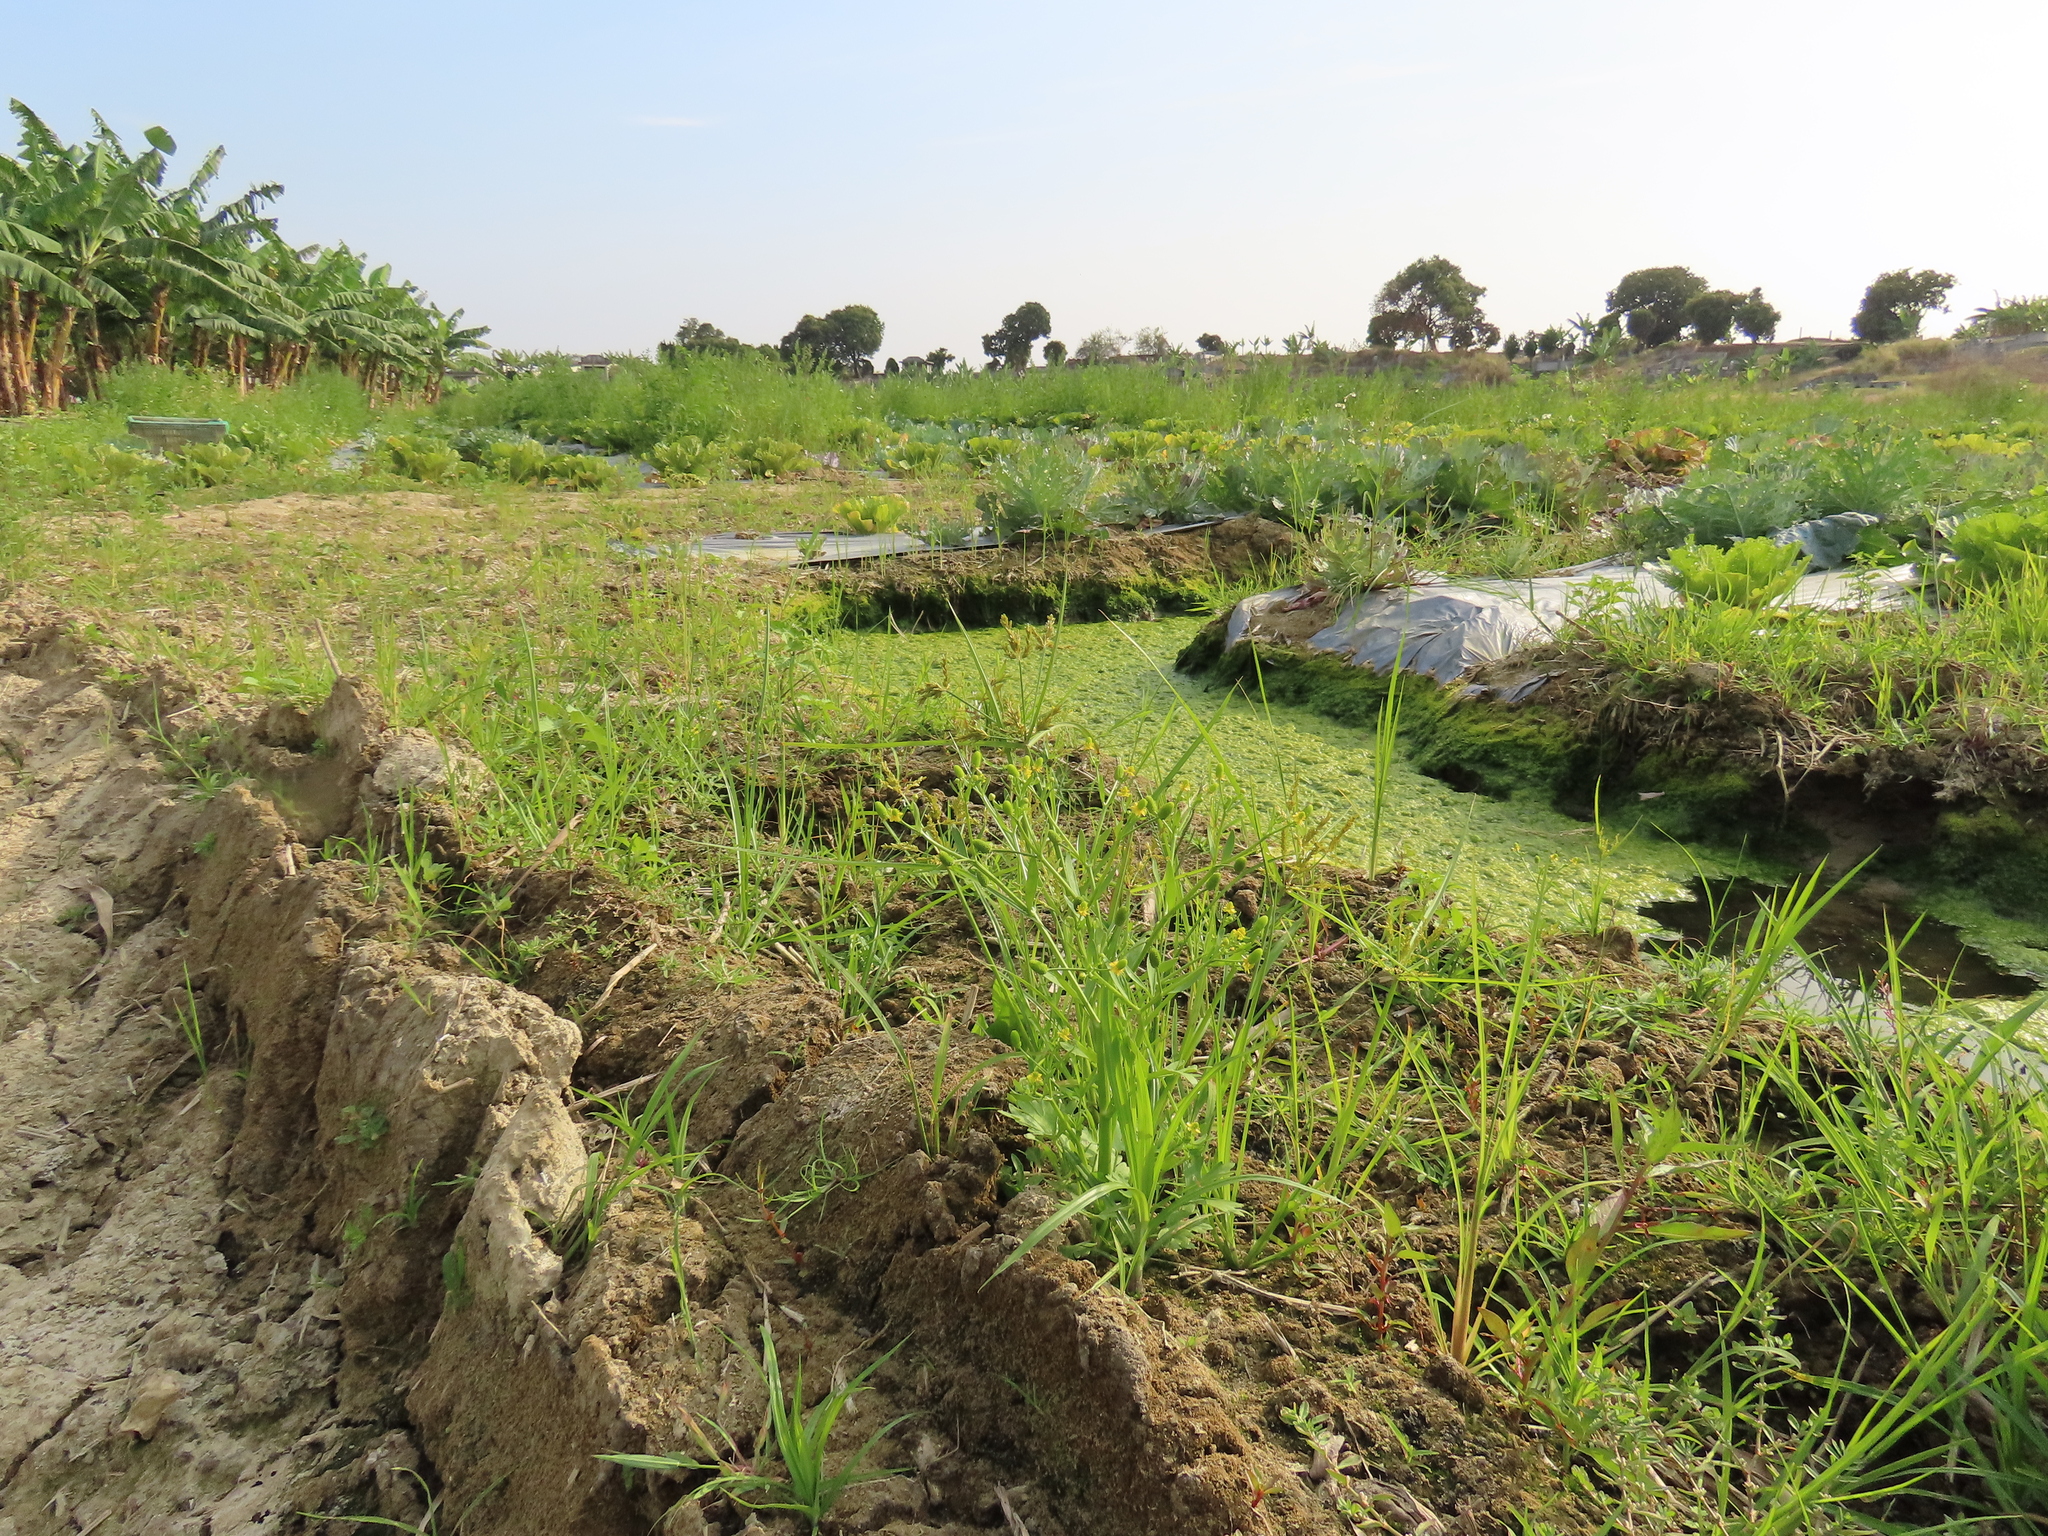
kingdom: Plantae
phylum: Tracheophyta
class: Magnoliopsida
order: Ranunculales
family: Ranunculaceae
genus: Ranunculus
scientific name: Ranunculus sceleratus
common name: Celery-leaved buttercup
